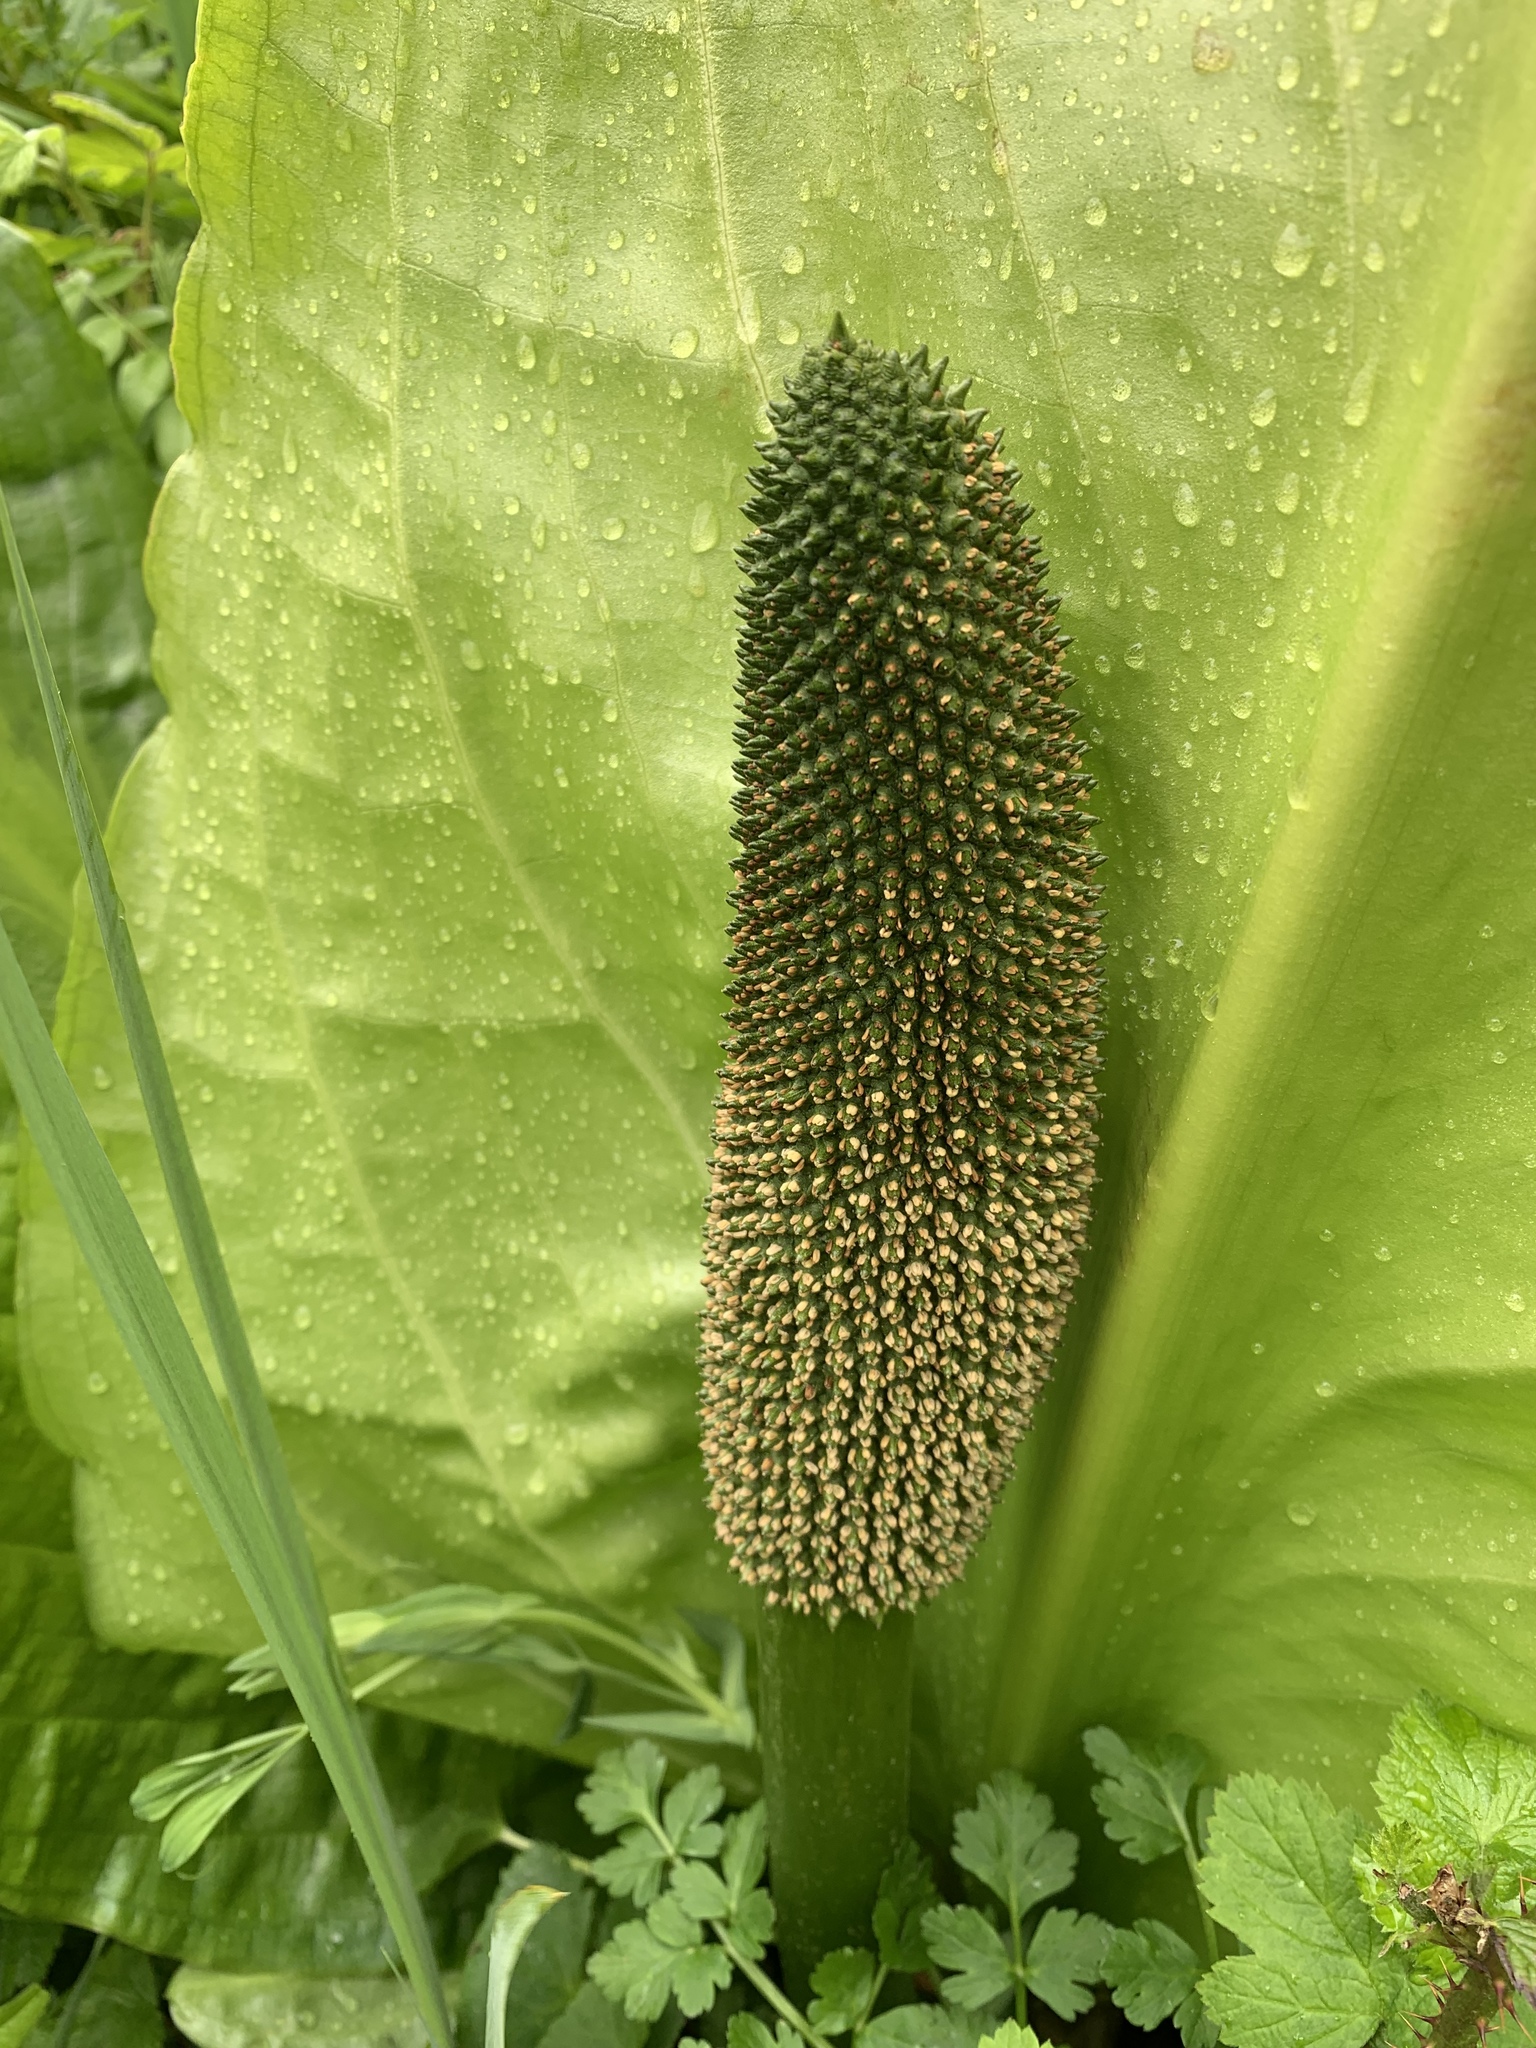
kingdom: Plantae
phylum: Tracheophyta
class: Liliopsida
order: Alismatales
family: Araceae
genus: Lysichiton
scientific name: Lysichiton americanus
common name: American skunk cabbage
